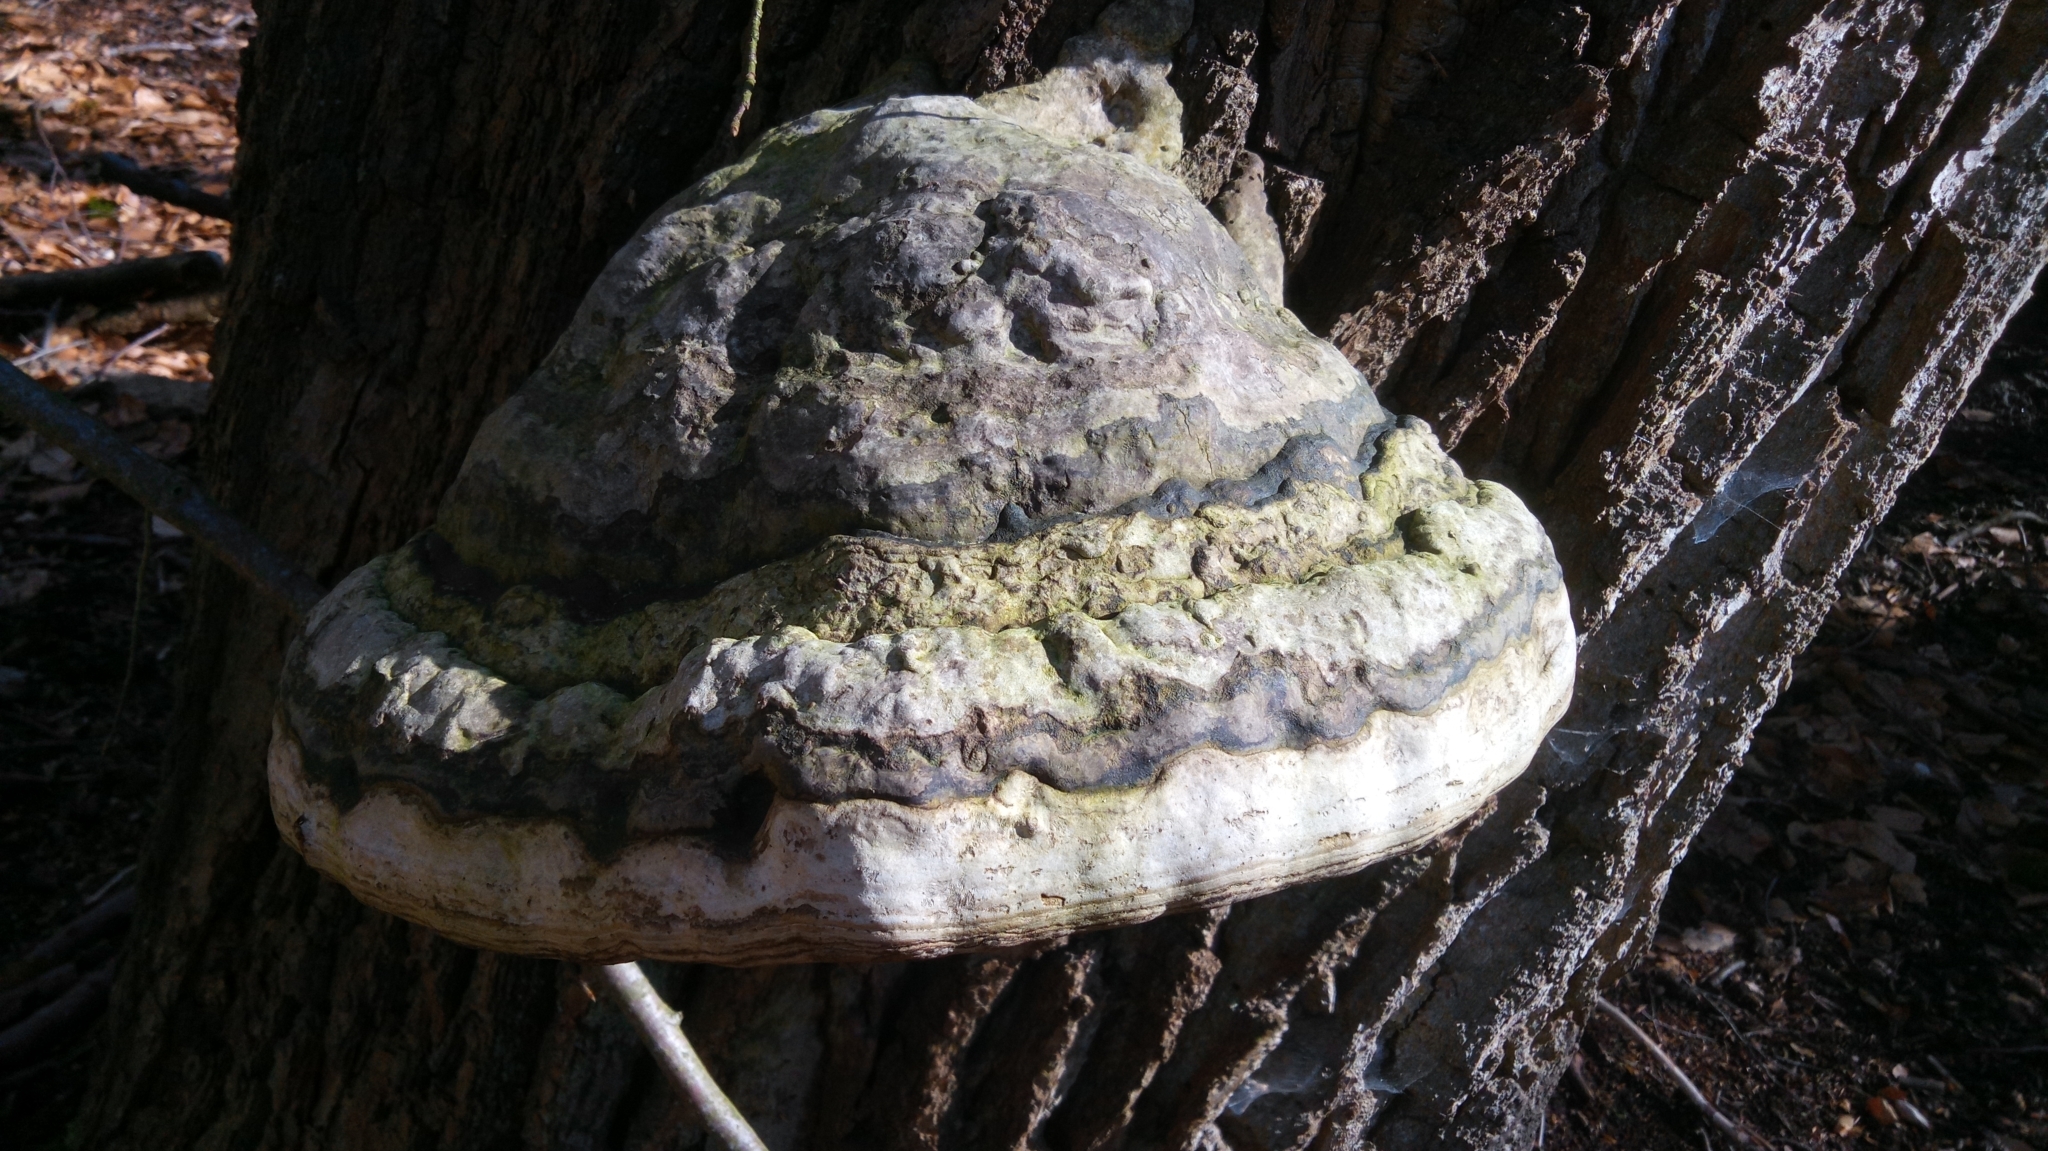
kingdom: Fungi
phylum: Basidiomycota
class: Agaricomycetes
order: Polyporales
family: Polyporaceae
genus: Fomes
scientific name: Fomes fomentarius
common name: Hoof fungus
